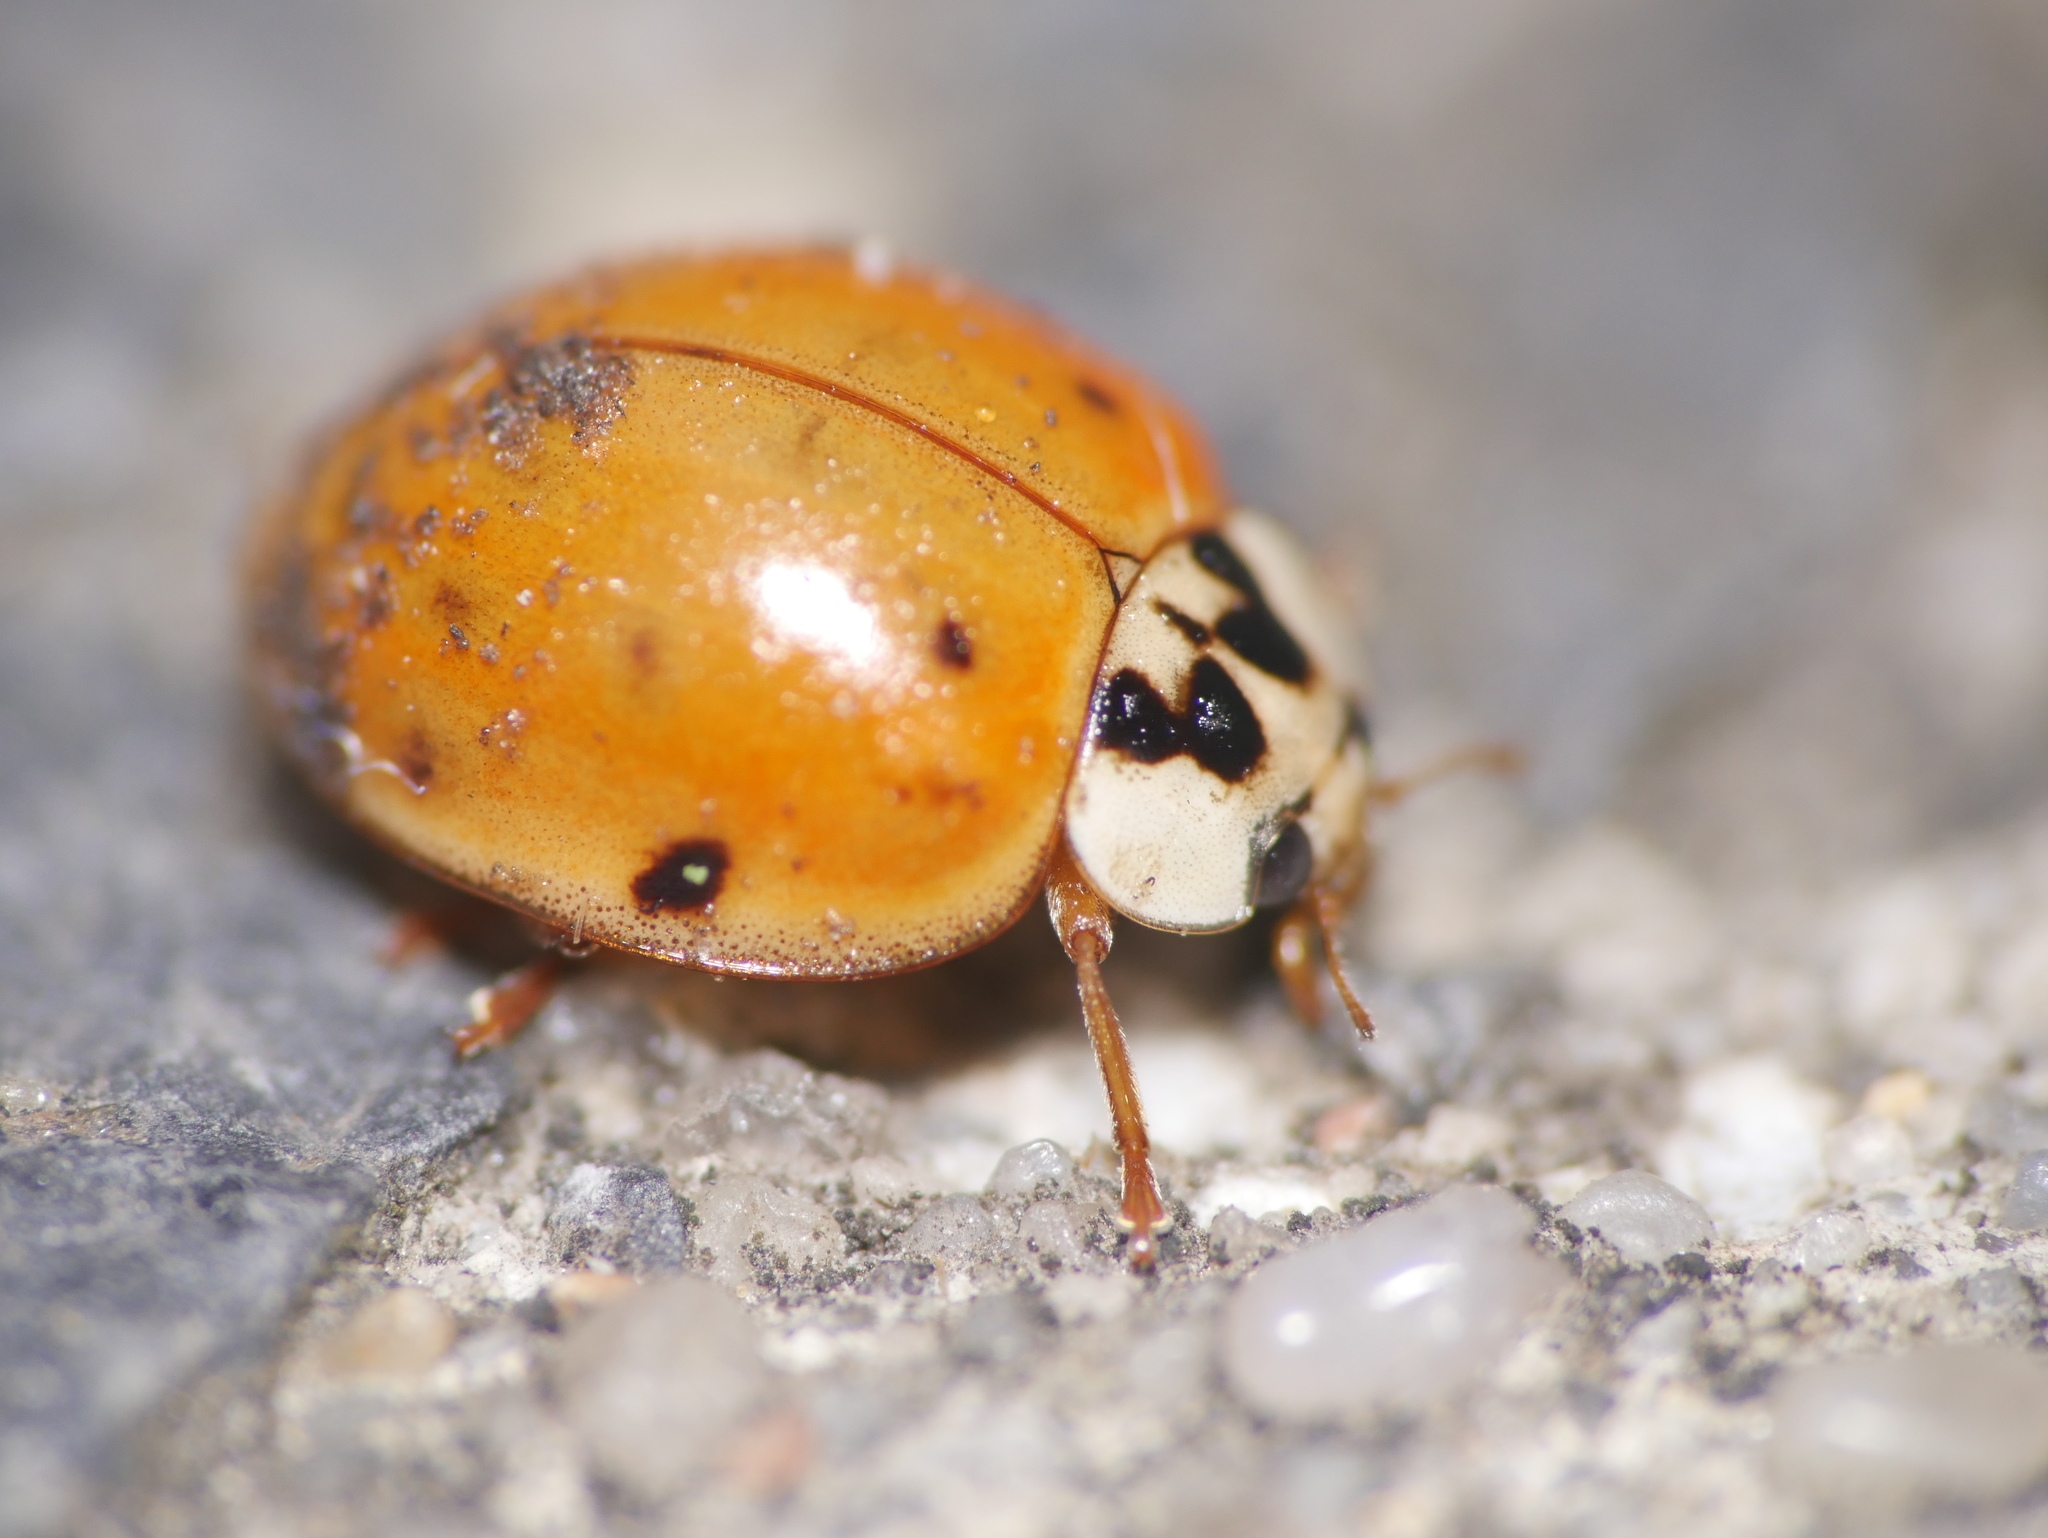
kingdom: Animalia
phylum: Arthropoda
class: Insecta
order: Coleoptera
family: Coccinellidae
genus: Harmonia
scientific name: Harmonia axyridis
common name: Harlequin ladybird
